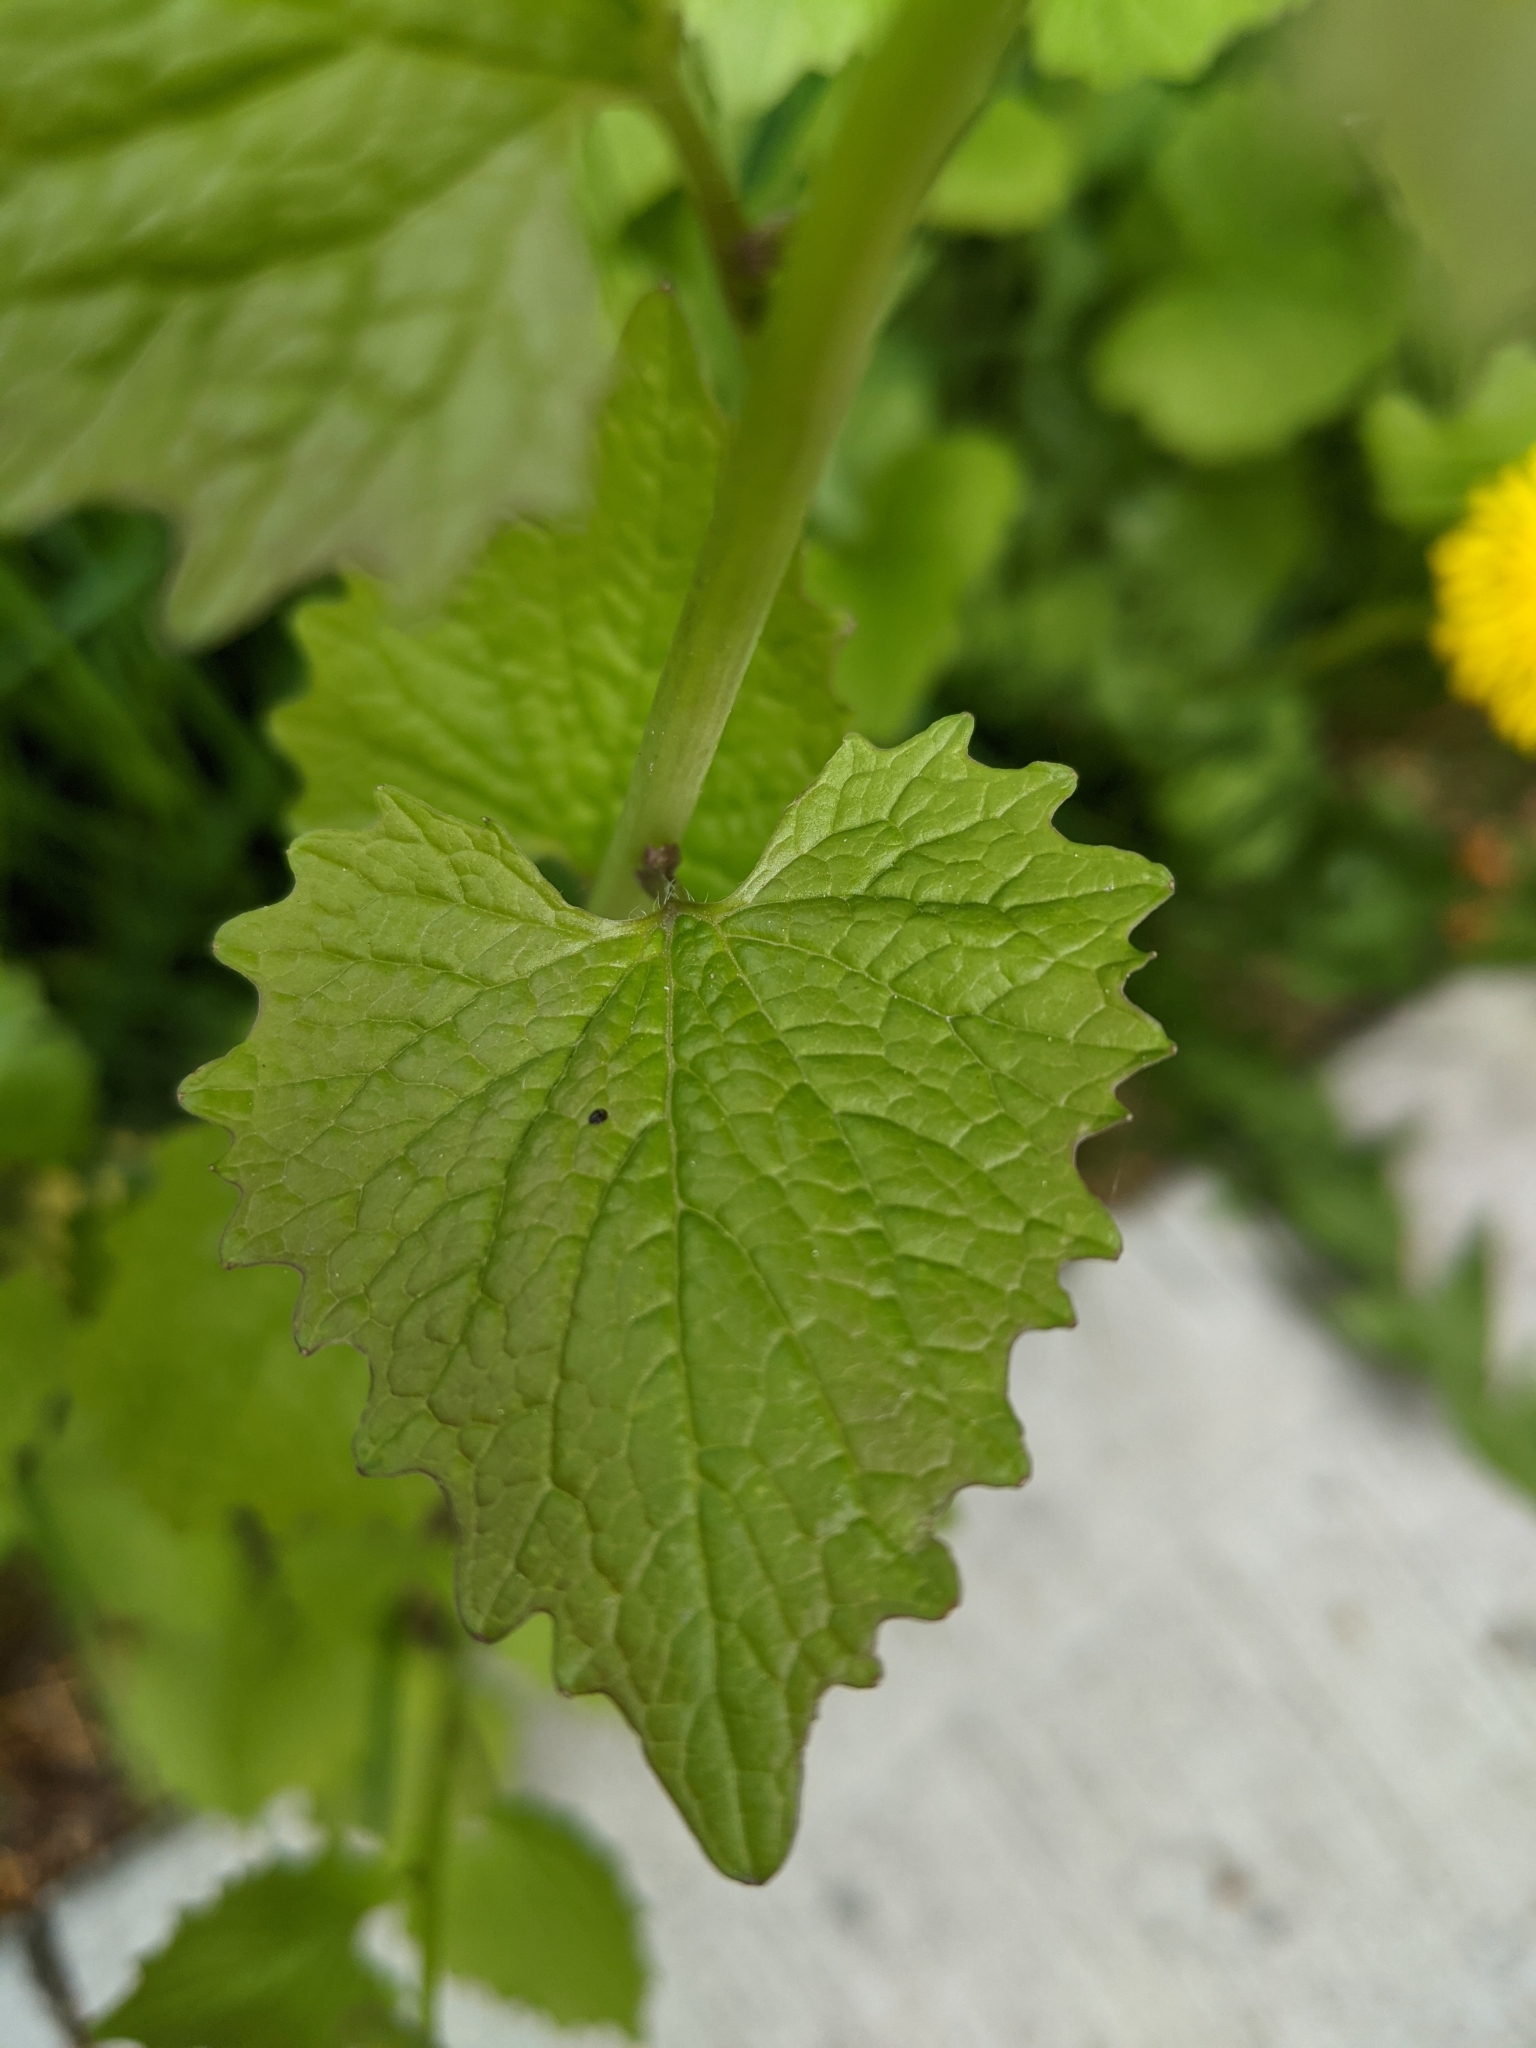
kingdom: Plantae
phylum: Tracheophyta
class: Magnoliopsida
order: Brassicales
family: Brassicaceae
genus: Alliaria
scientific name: Alliaria petiolata
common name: Garlic mustard
